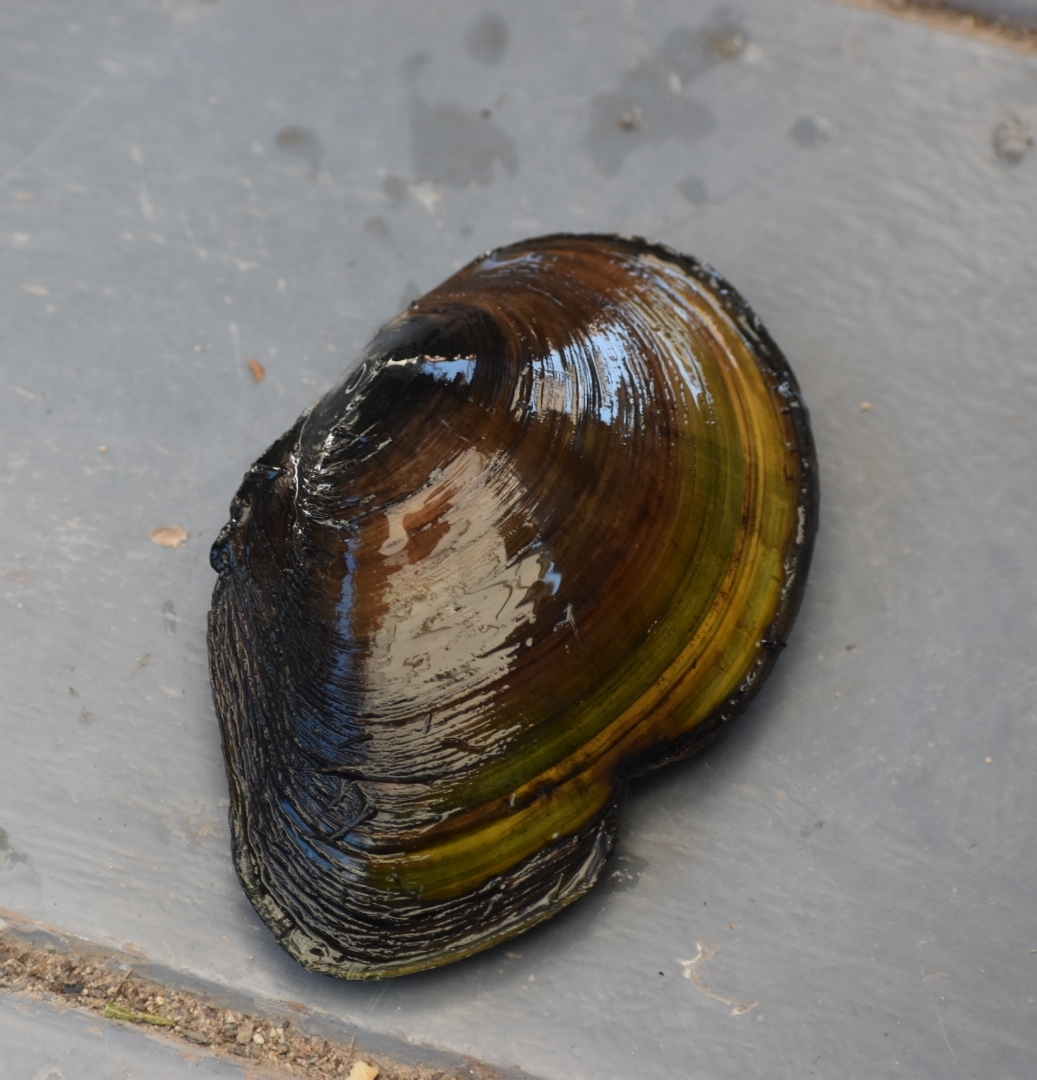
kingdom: Animalia
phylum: Mollusca
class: Bivalvia
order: Unionida
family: Unionidae
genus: Anodonta
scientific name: Anodonta anatina
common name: Duck mussel
